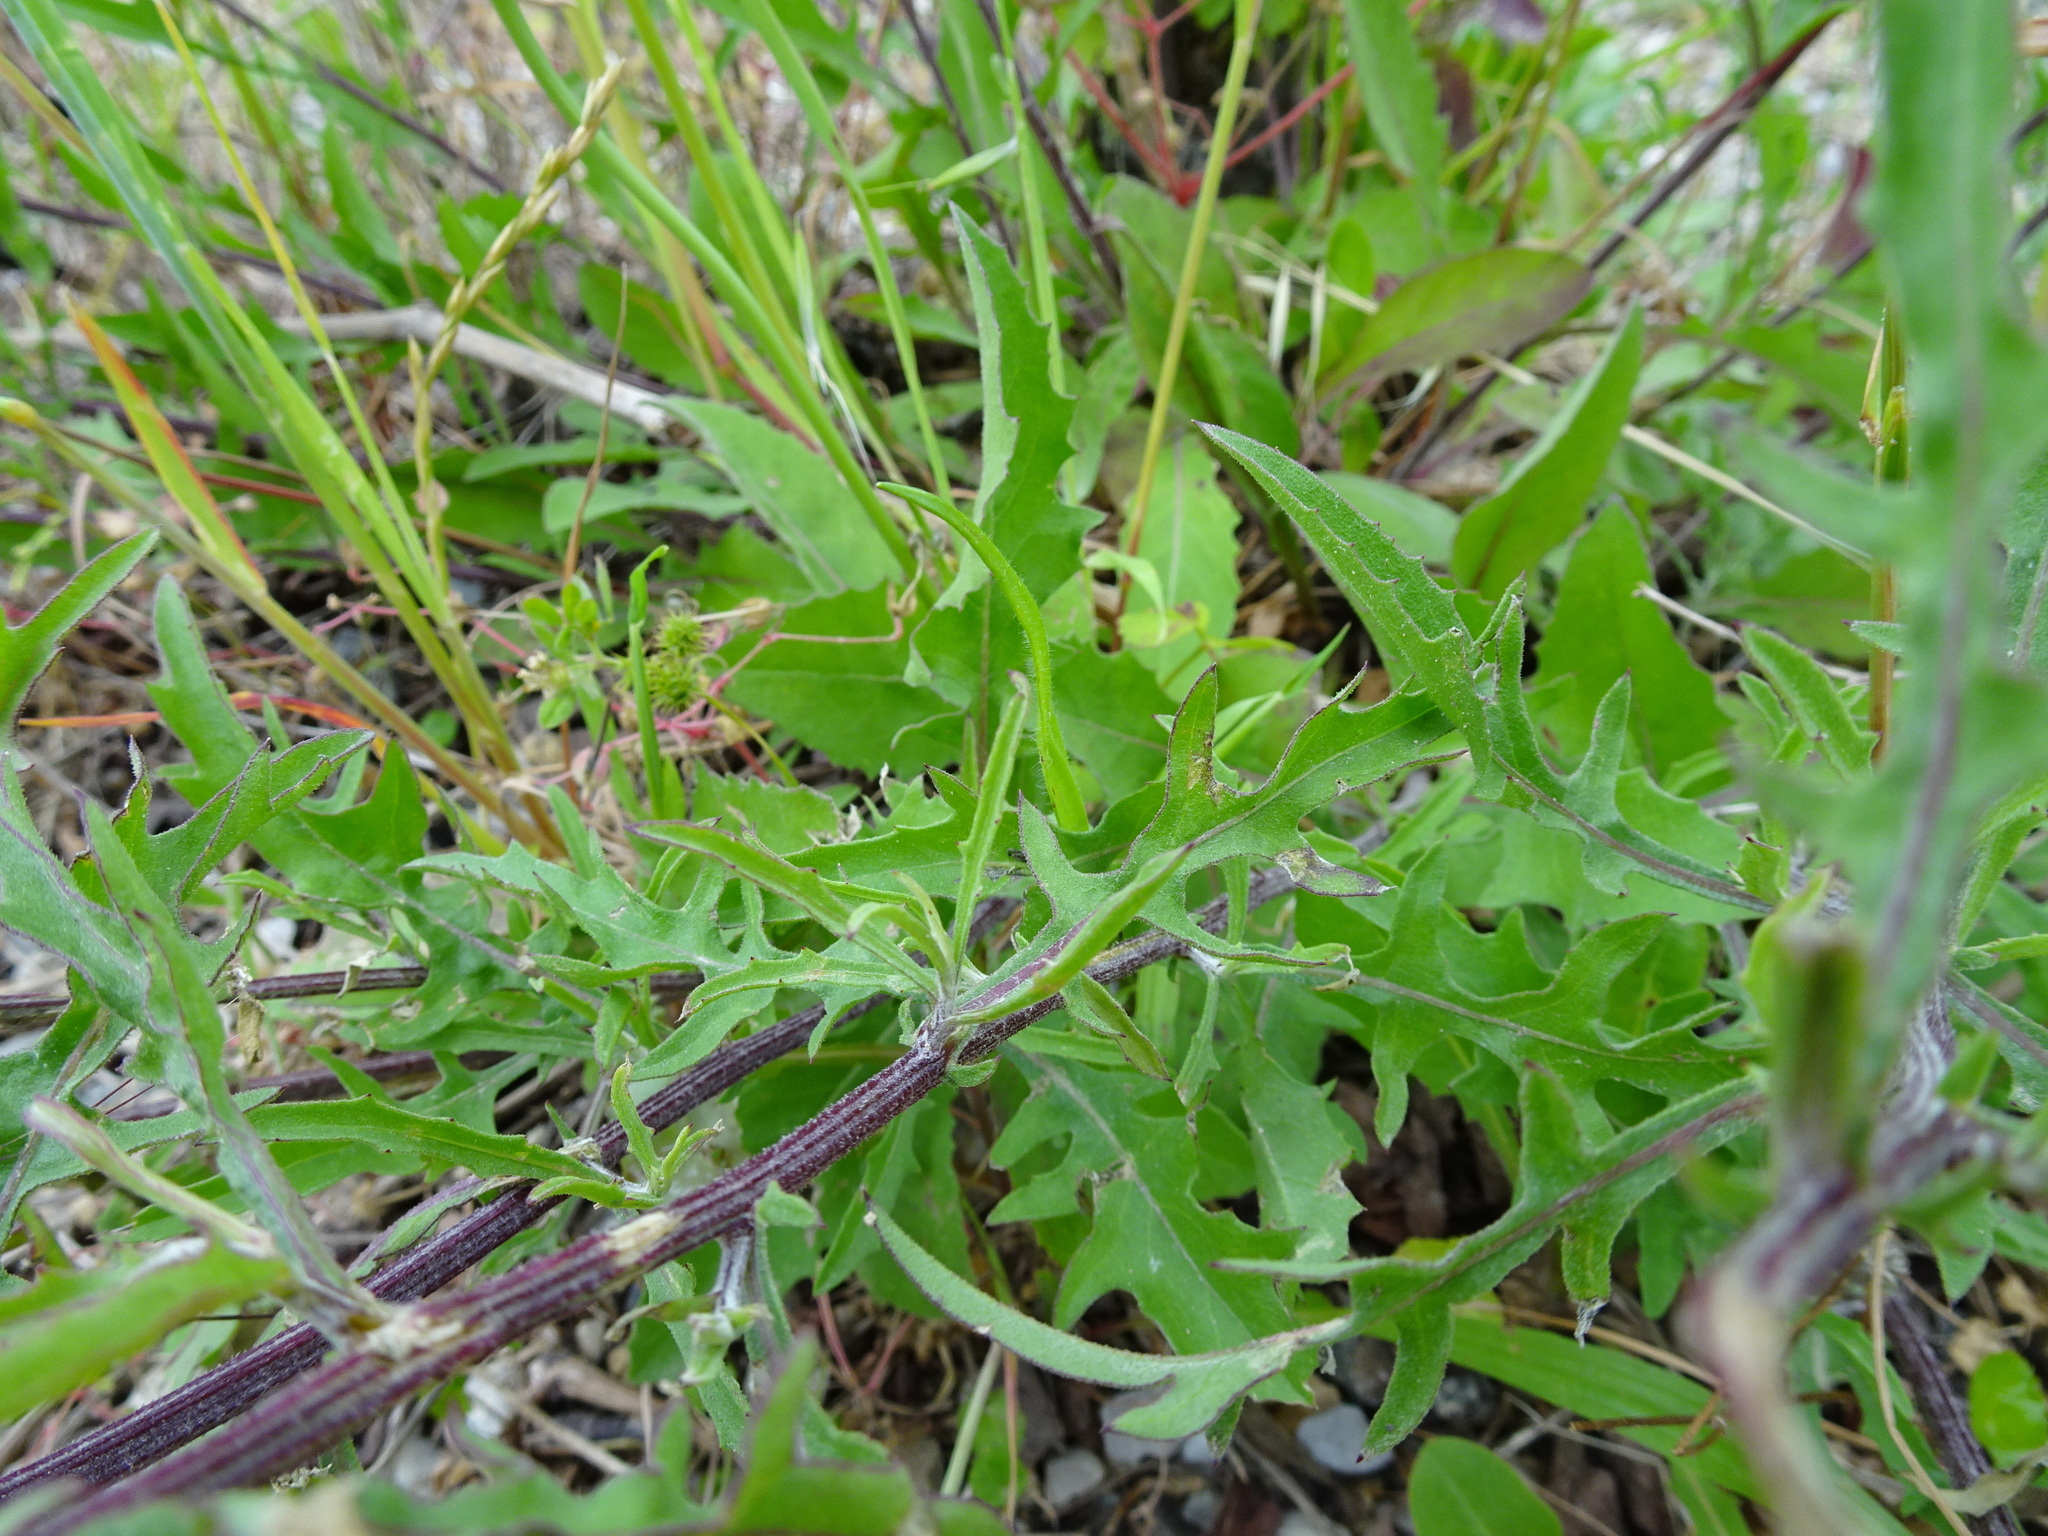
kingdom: Plantae
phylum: Tracheophyta
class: Magnoliopsida
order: Asterales
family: Asteraceae
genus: Centaurea
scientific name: Centaurea aspera
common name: Rough star-thistle
